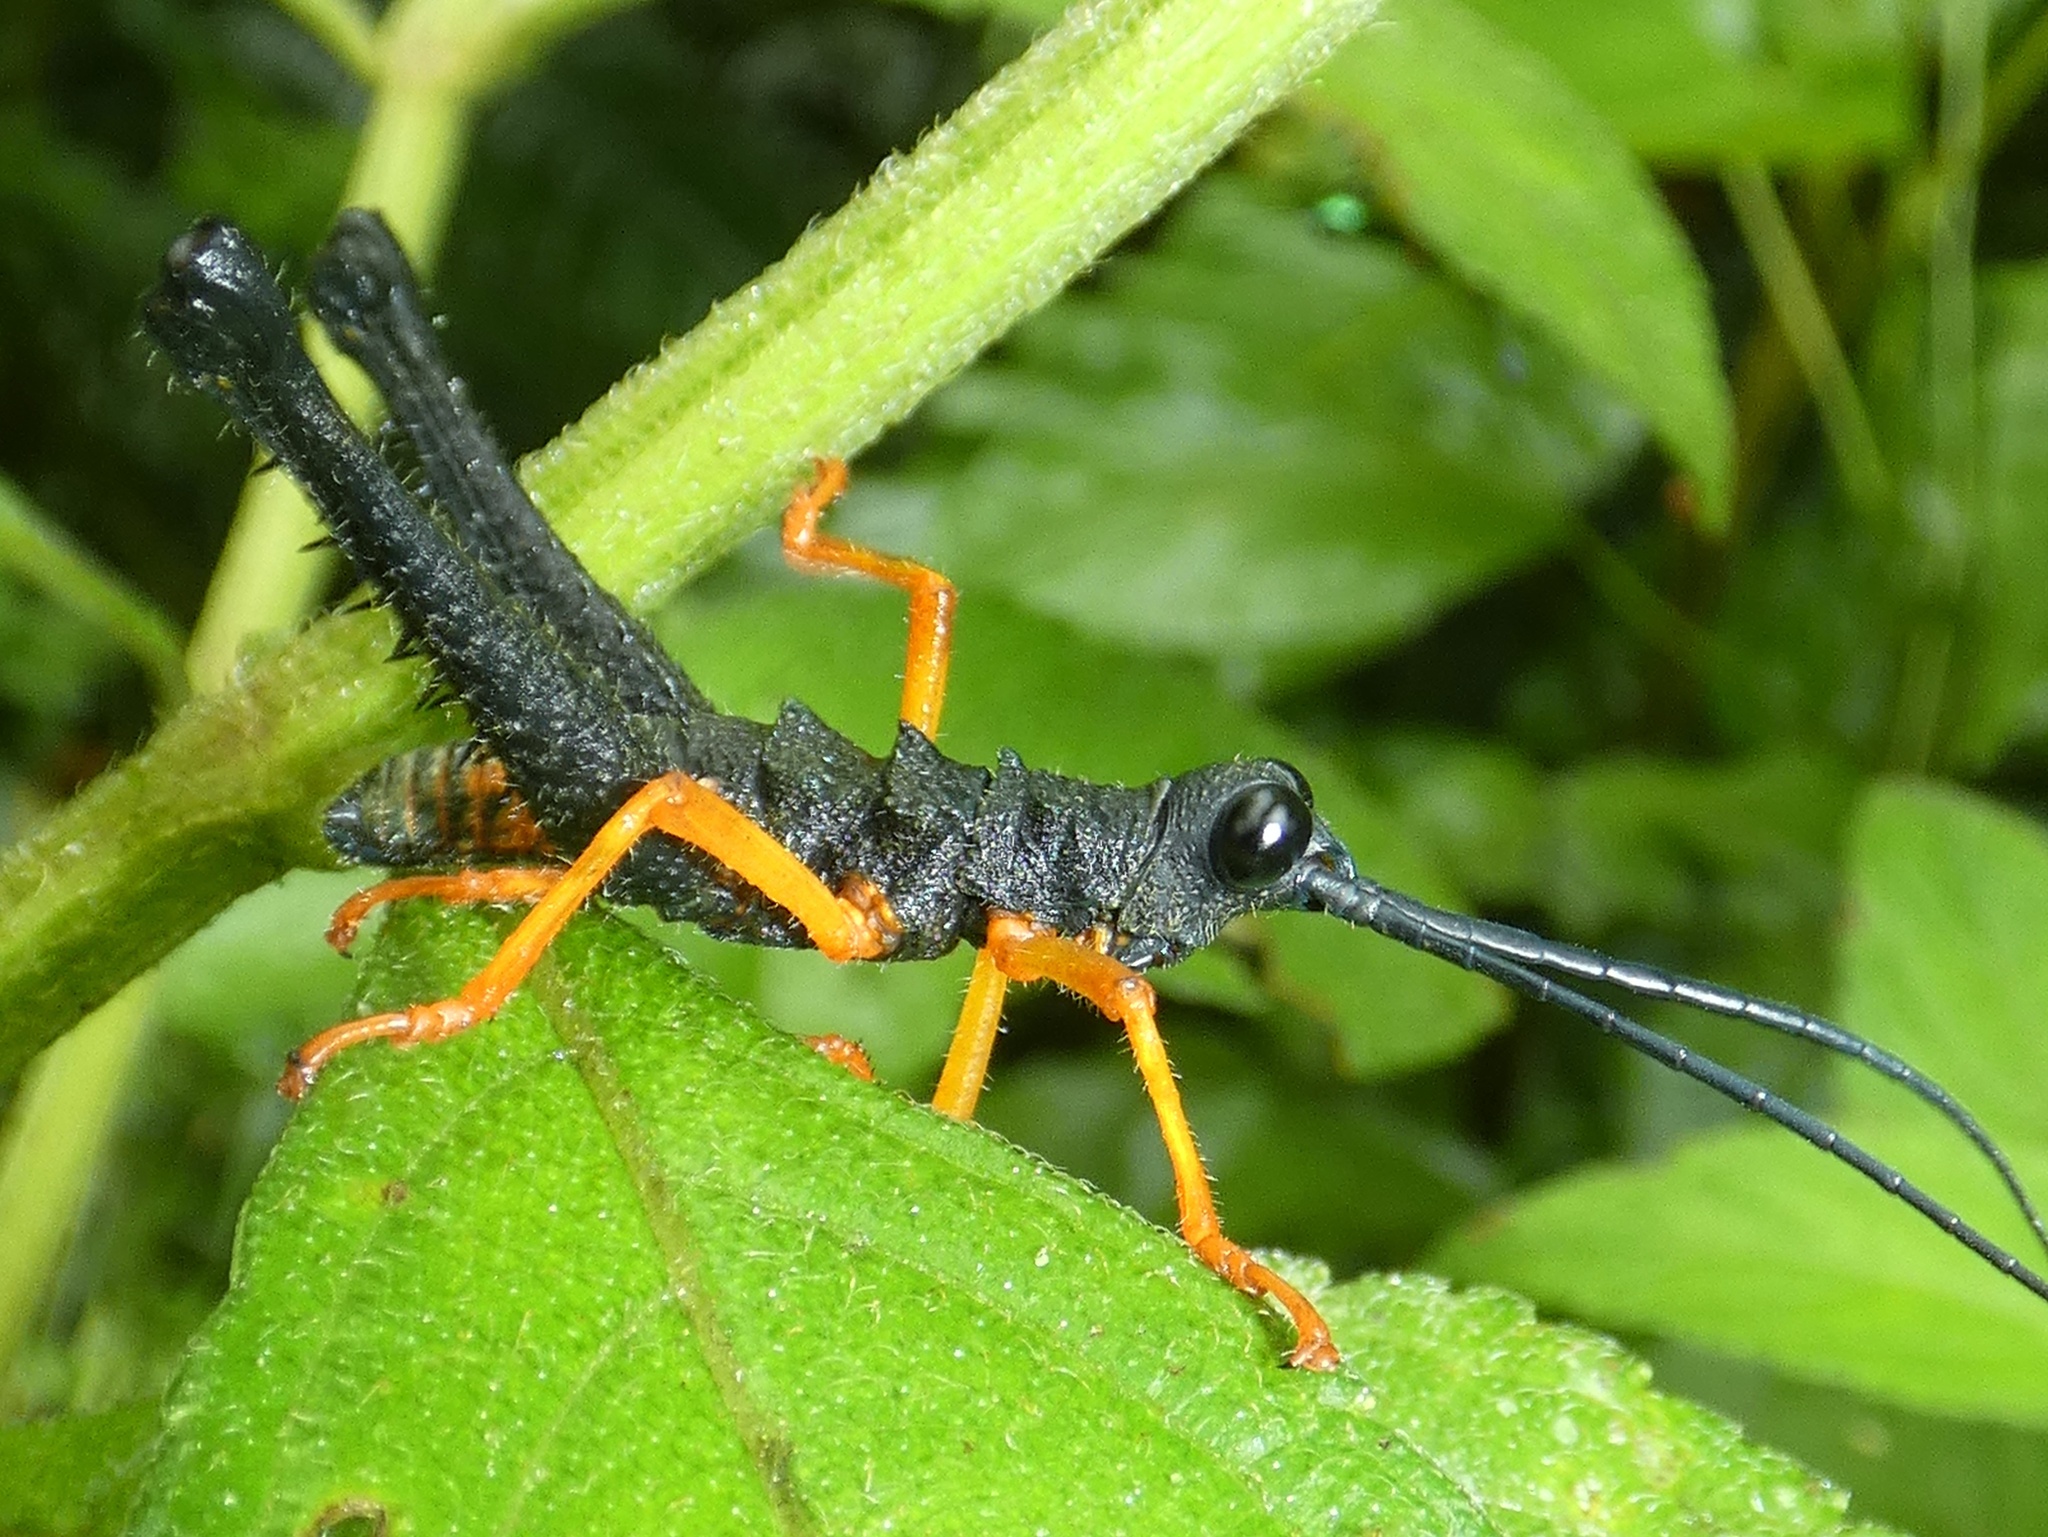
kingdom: Animalia
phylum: Arthropoda
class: Insecta
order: Orthoptera
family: Acrididae
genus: Piezops
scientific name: Piezops ensicornis
